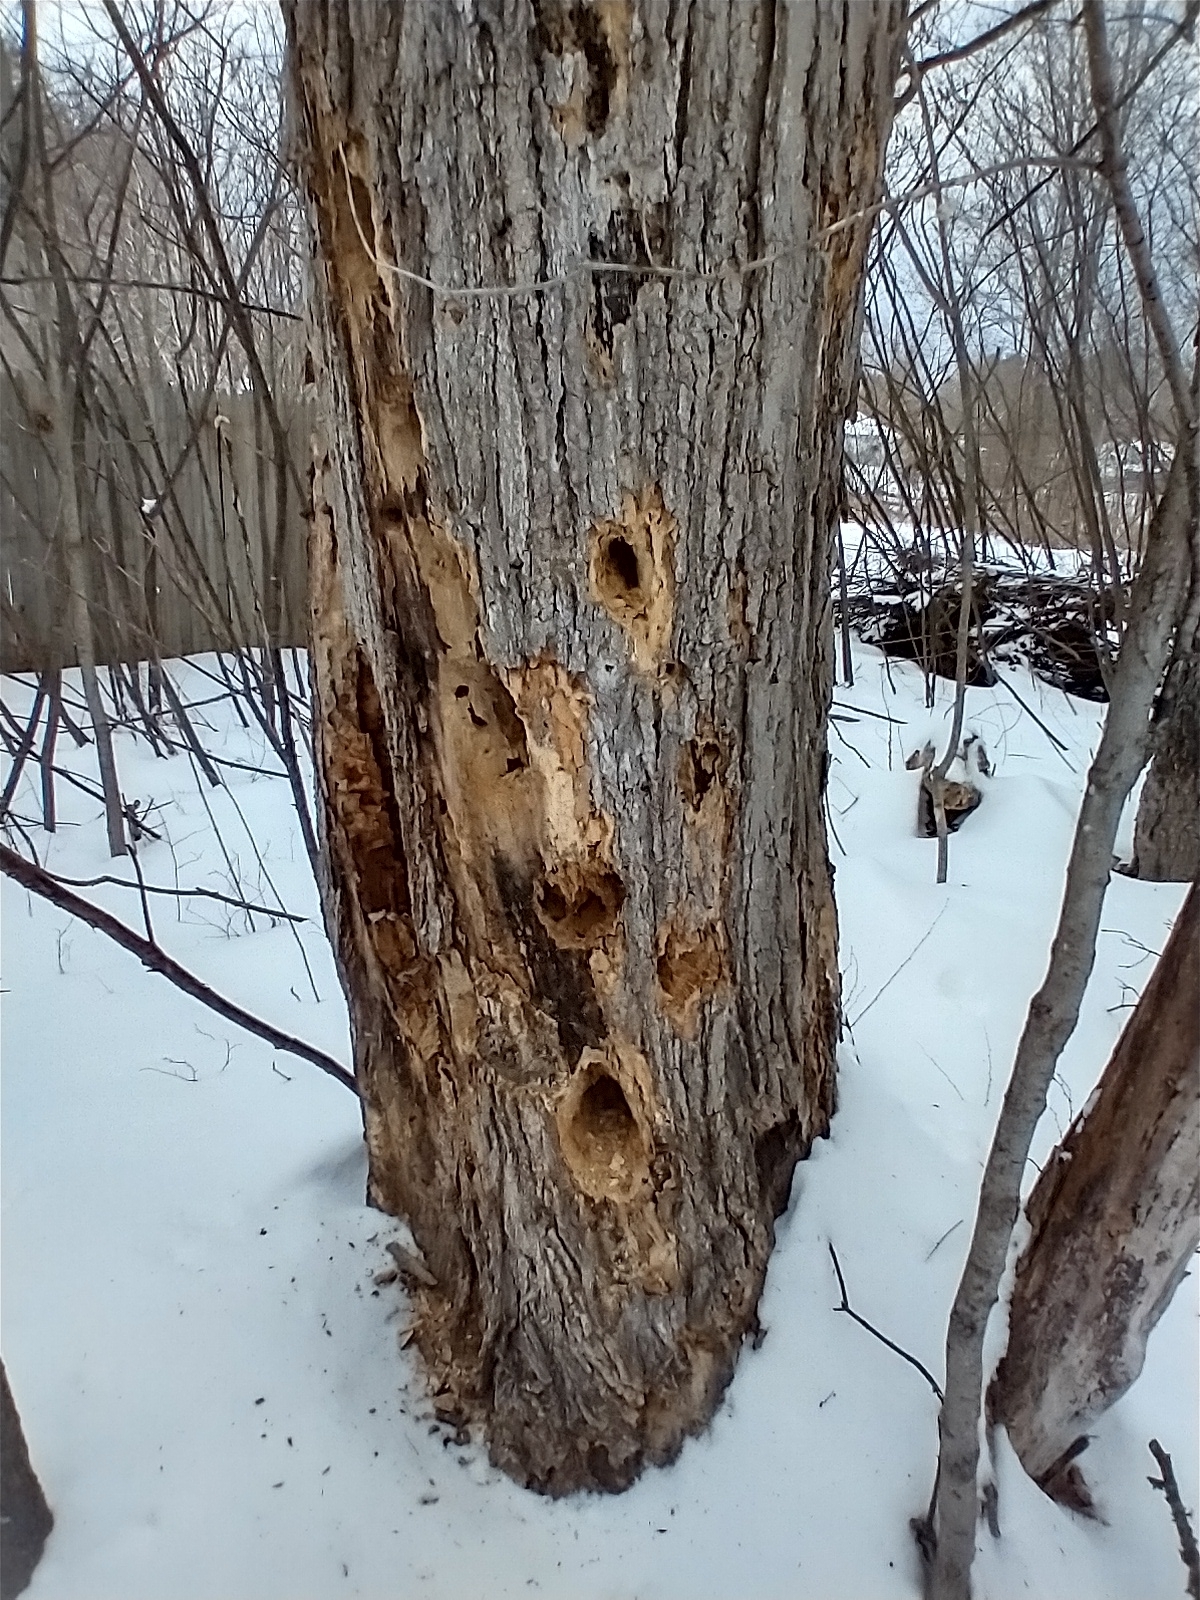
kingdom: Animalia
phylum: Chordata
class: Aves
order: Piciformes
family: Picidae
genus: Dryocopus
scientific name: Dryocopus pileatus
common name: Pileated woodpecker
